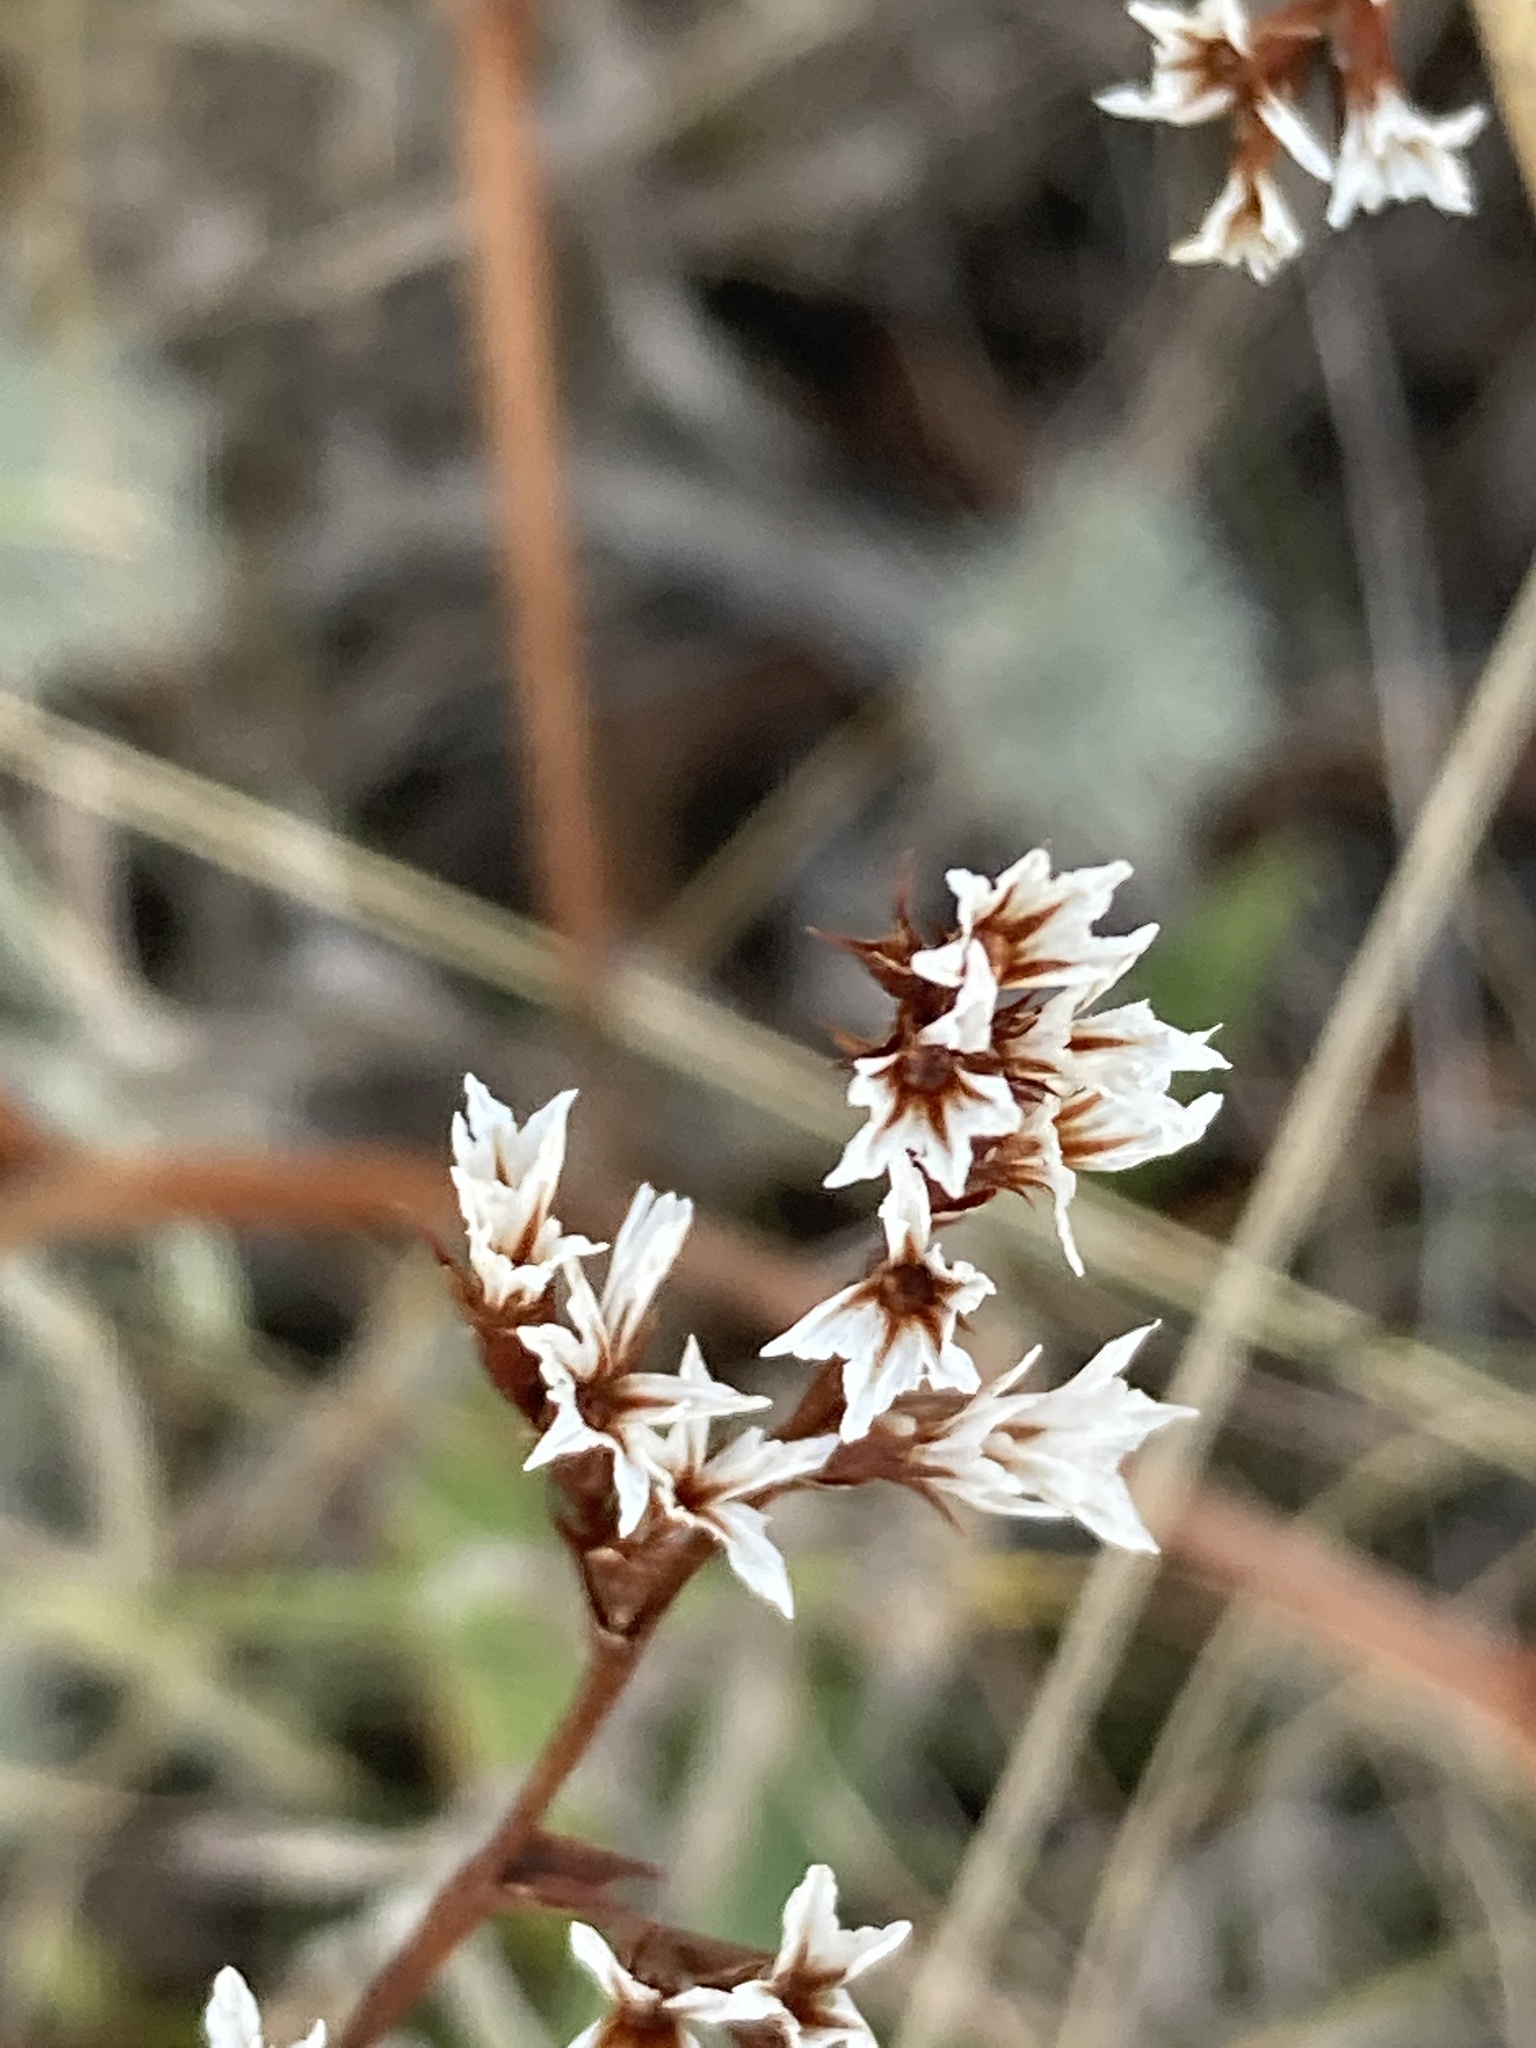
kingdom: Plantae
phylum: Tracheophyta
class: Magnoliopsida
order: Caryophyllales
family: Plumbaginaceae
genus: Goniolimon
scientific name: Goniolimon tataricum
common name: Statice
